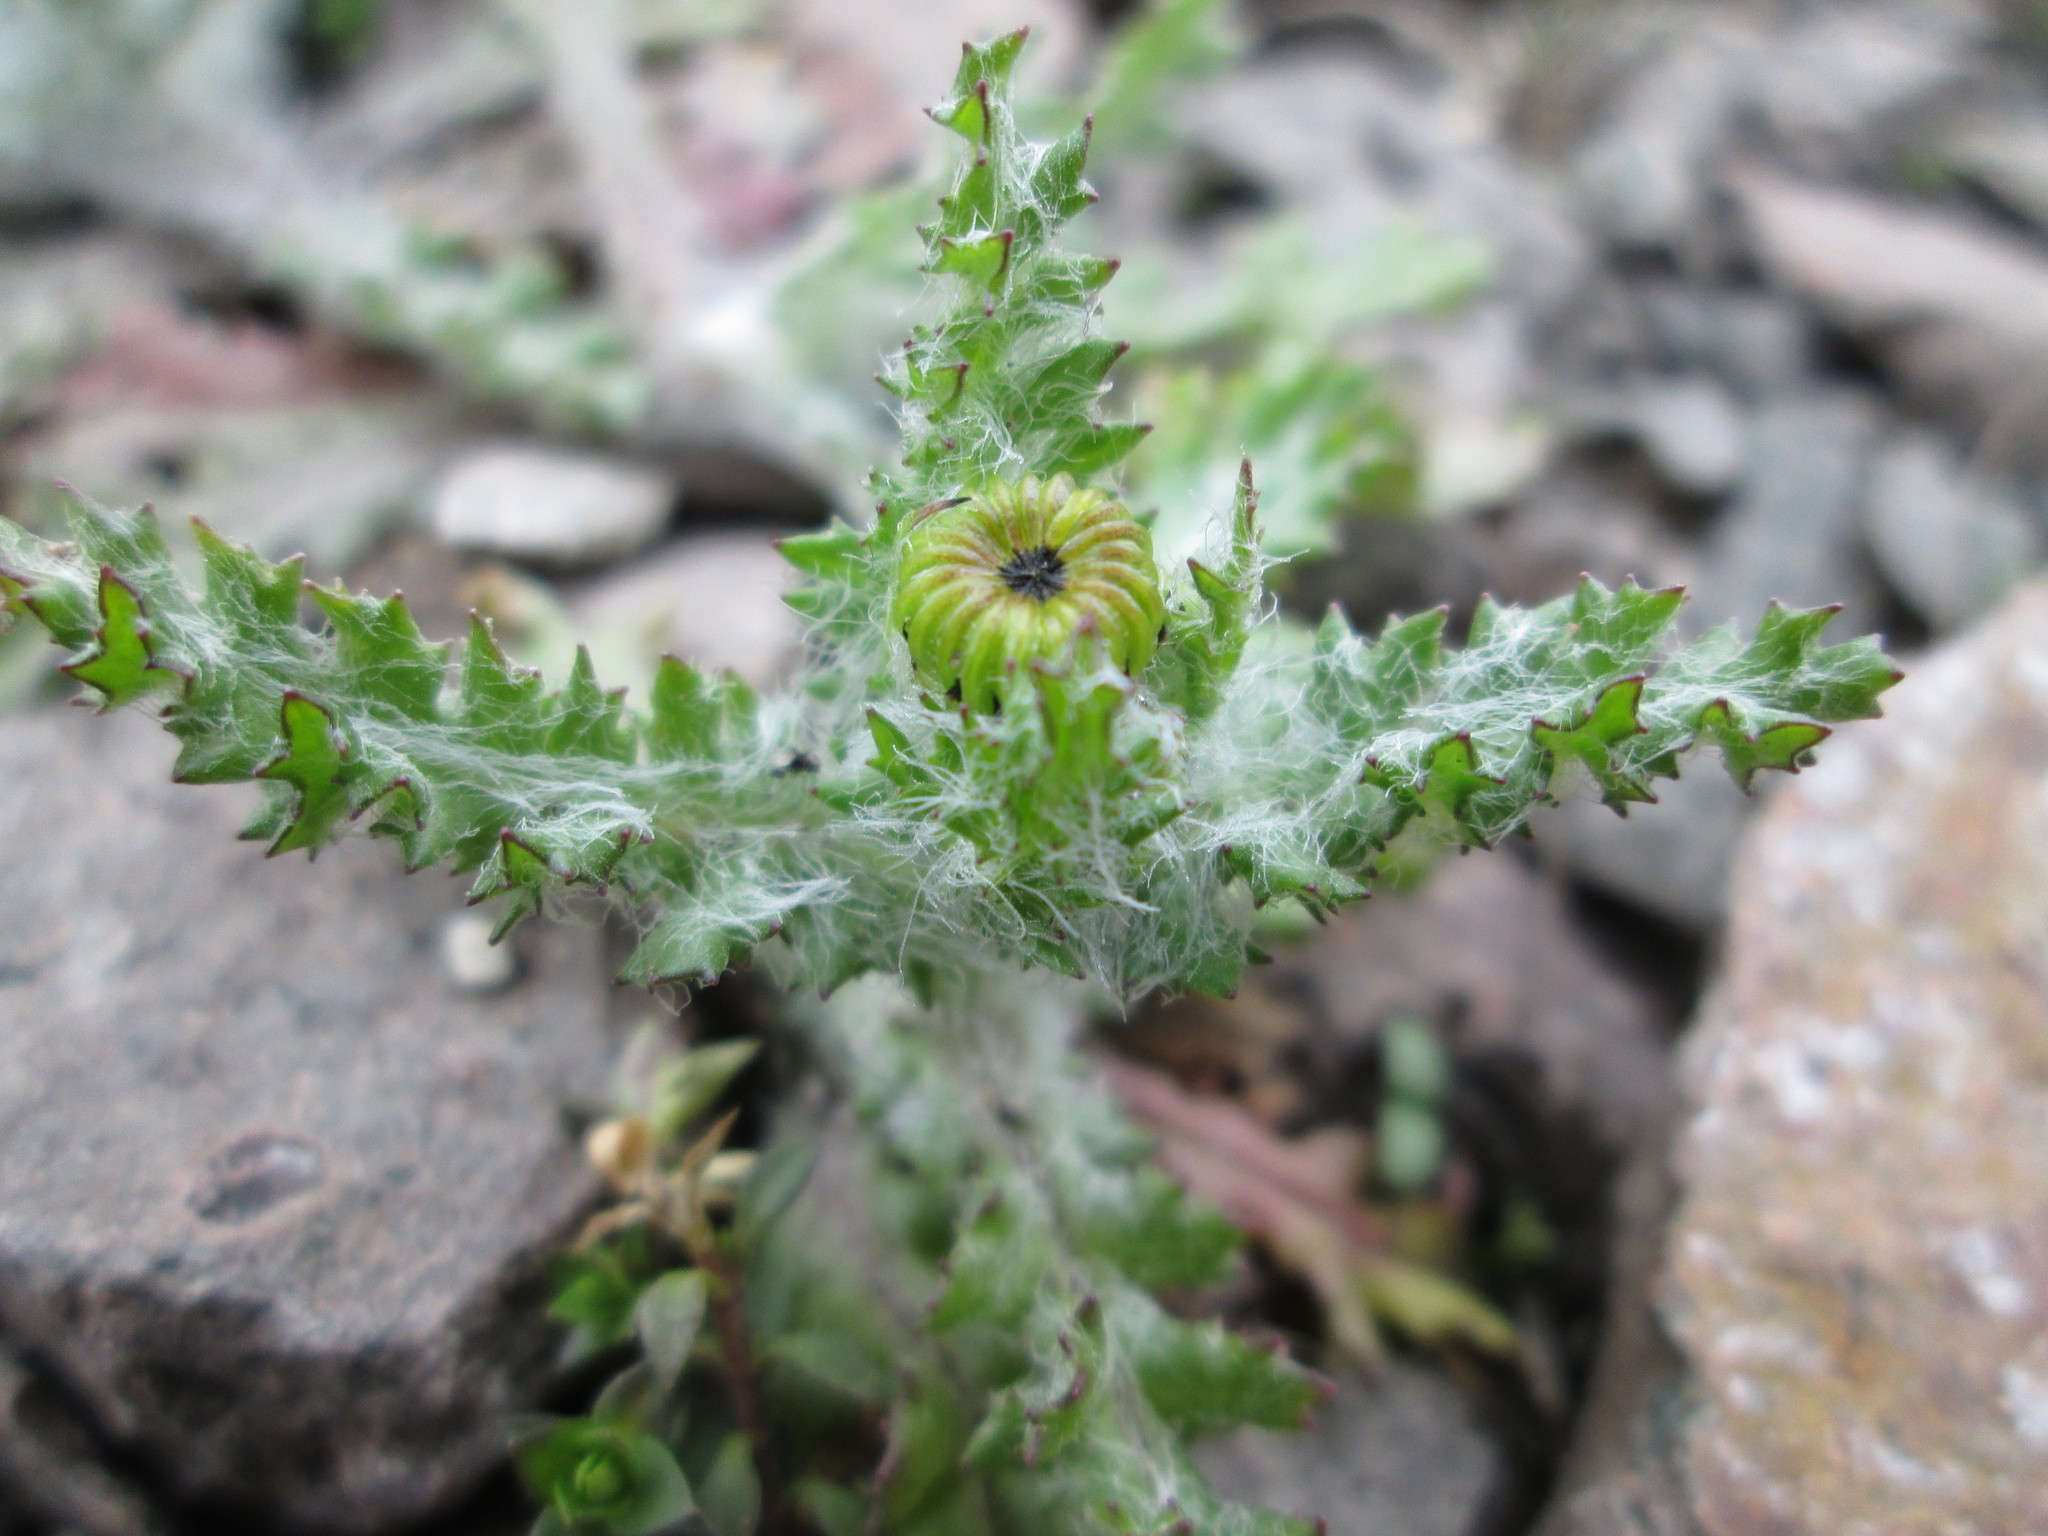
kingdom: Plantae
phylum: Tracheophyta
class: Magnoliopsida
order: Asterales
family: Asteraceae
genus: Senecio
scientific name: Senecio vernalis
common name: Eastern groundsel
